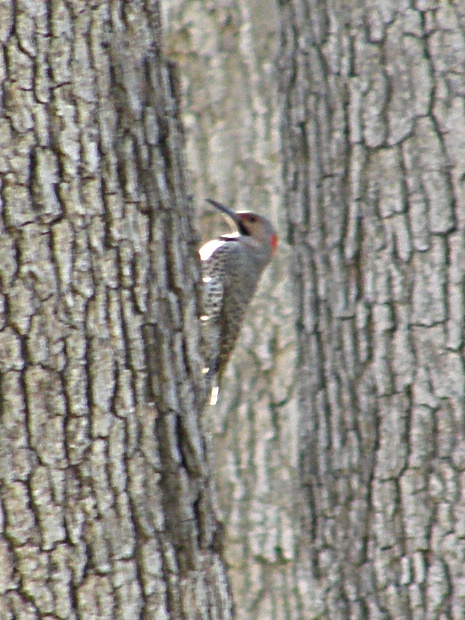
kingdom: Animalia
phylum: Chordata
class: Aves
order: Piciformes
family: Picidae
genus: Colaptes
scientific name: Colaptes auratus
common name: Northern flicker
